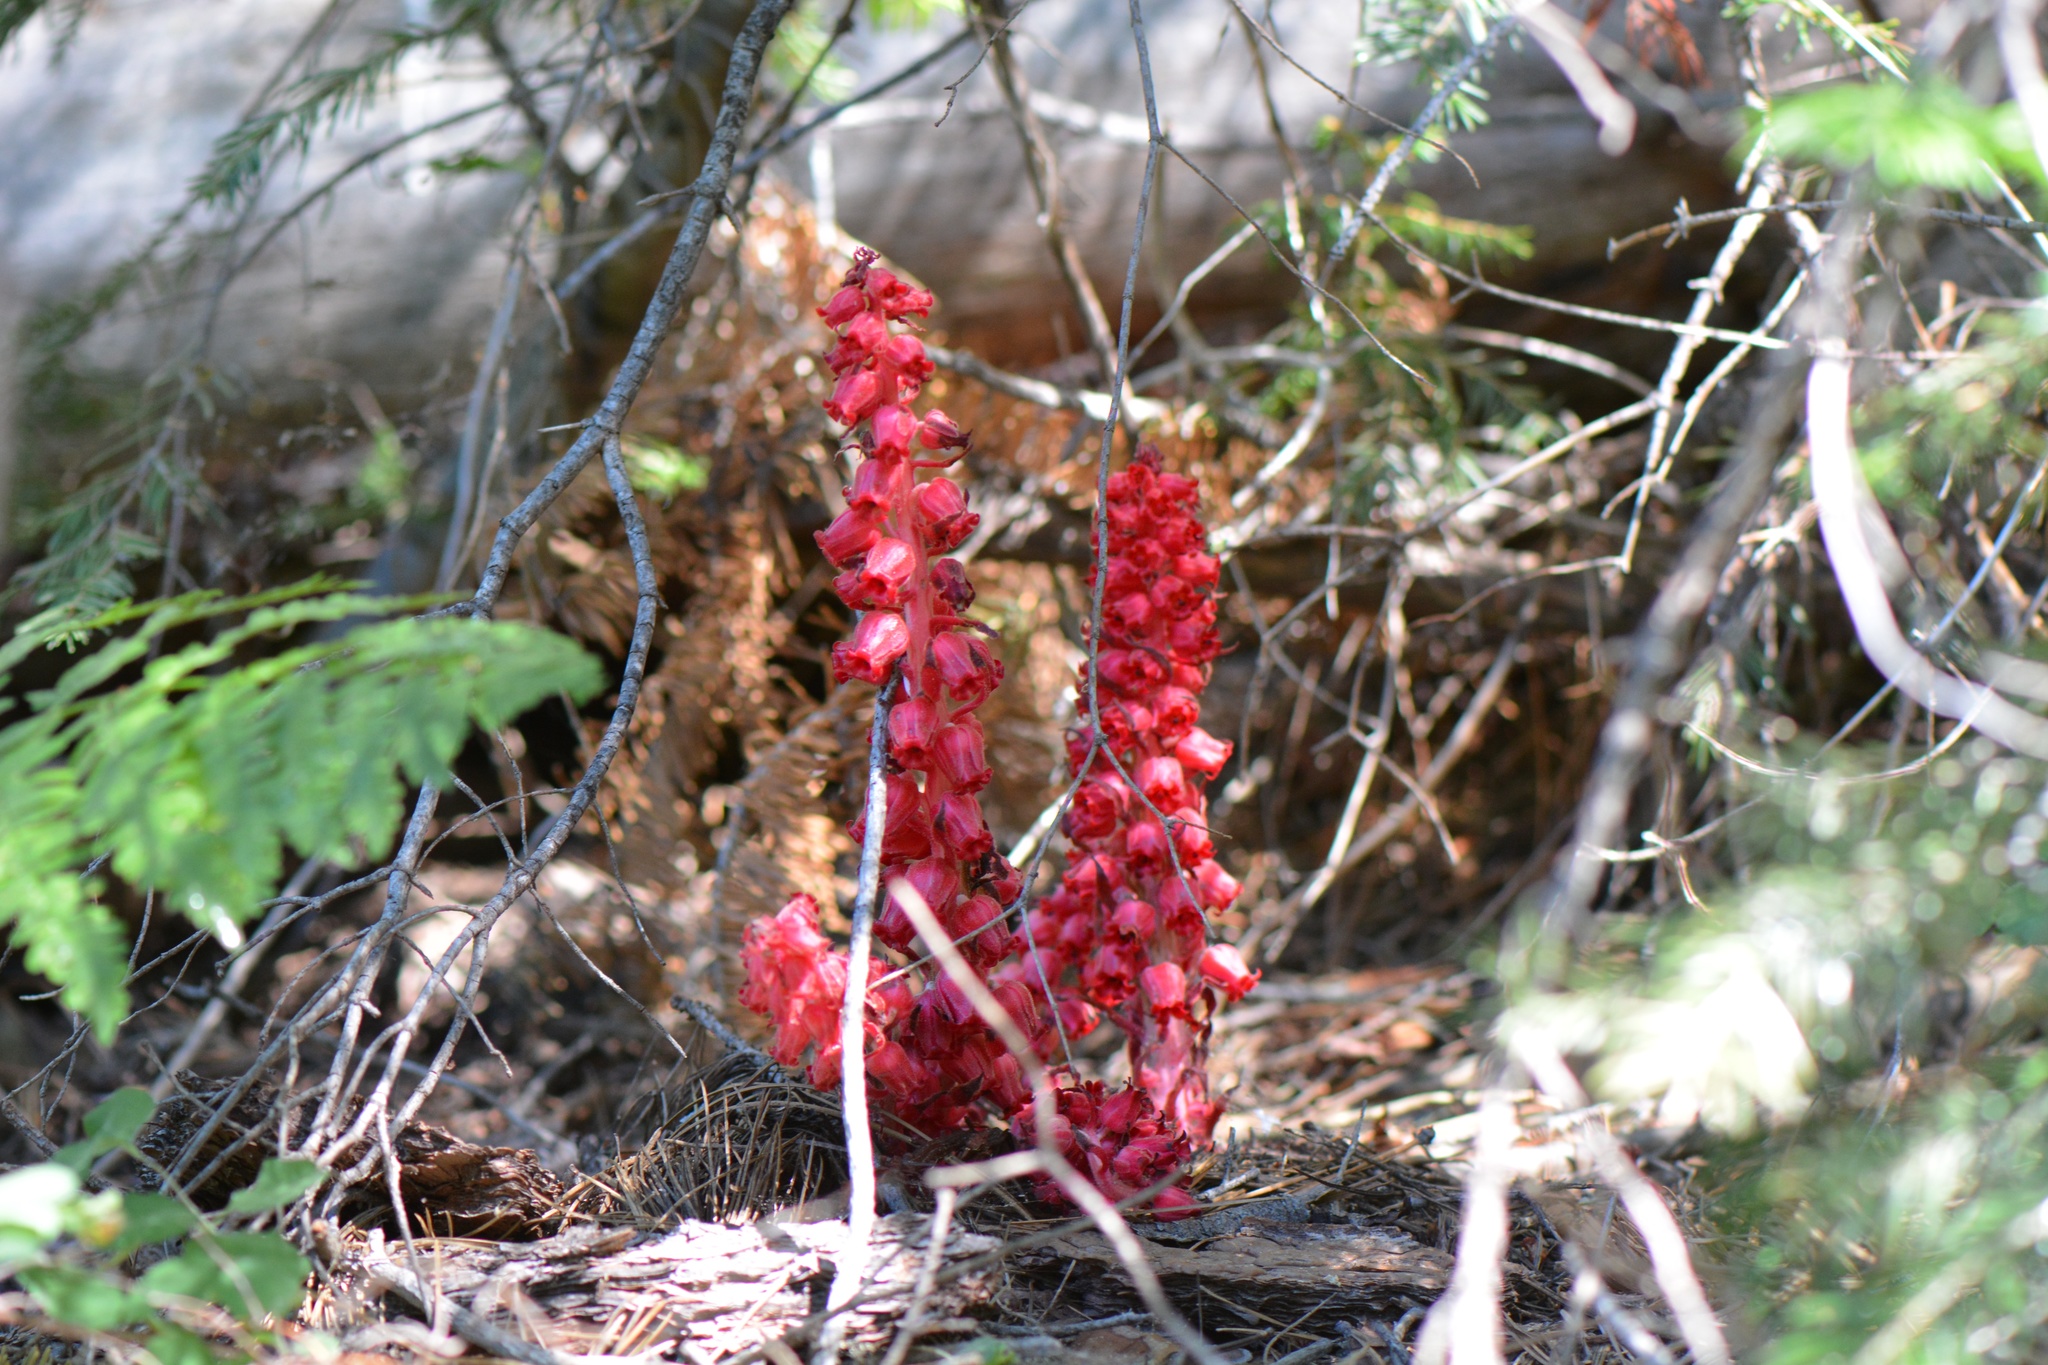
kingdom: Plantae
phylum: Tracheophyta
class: Magnoliopsida
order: Ericales
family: Ericaceae
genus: Sarcodes
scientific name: Sarcodes sanguinea
